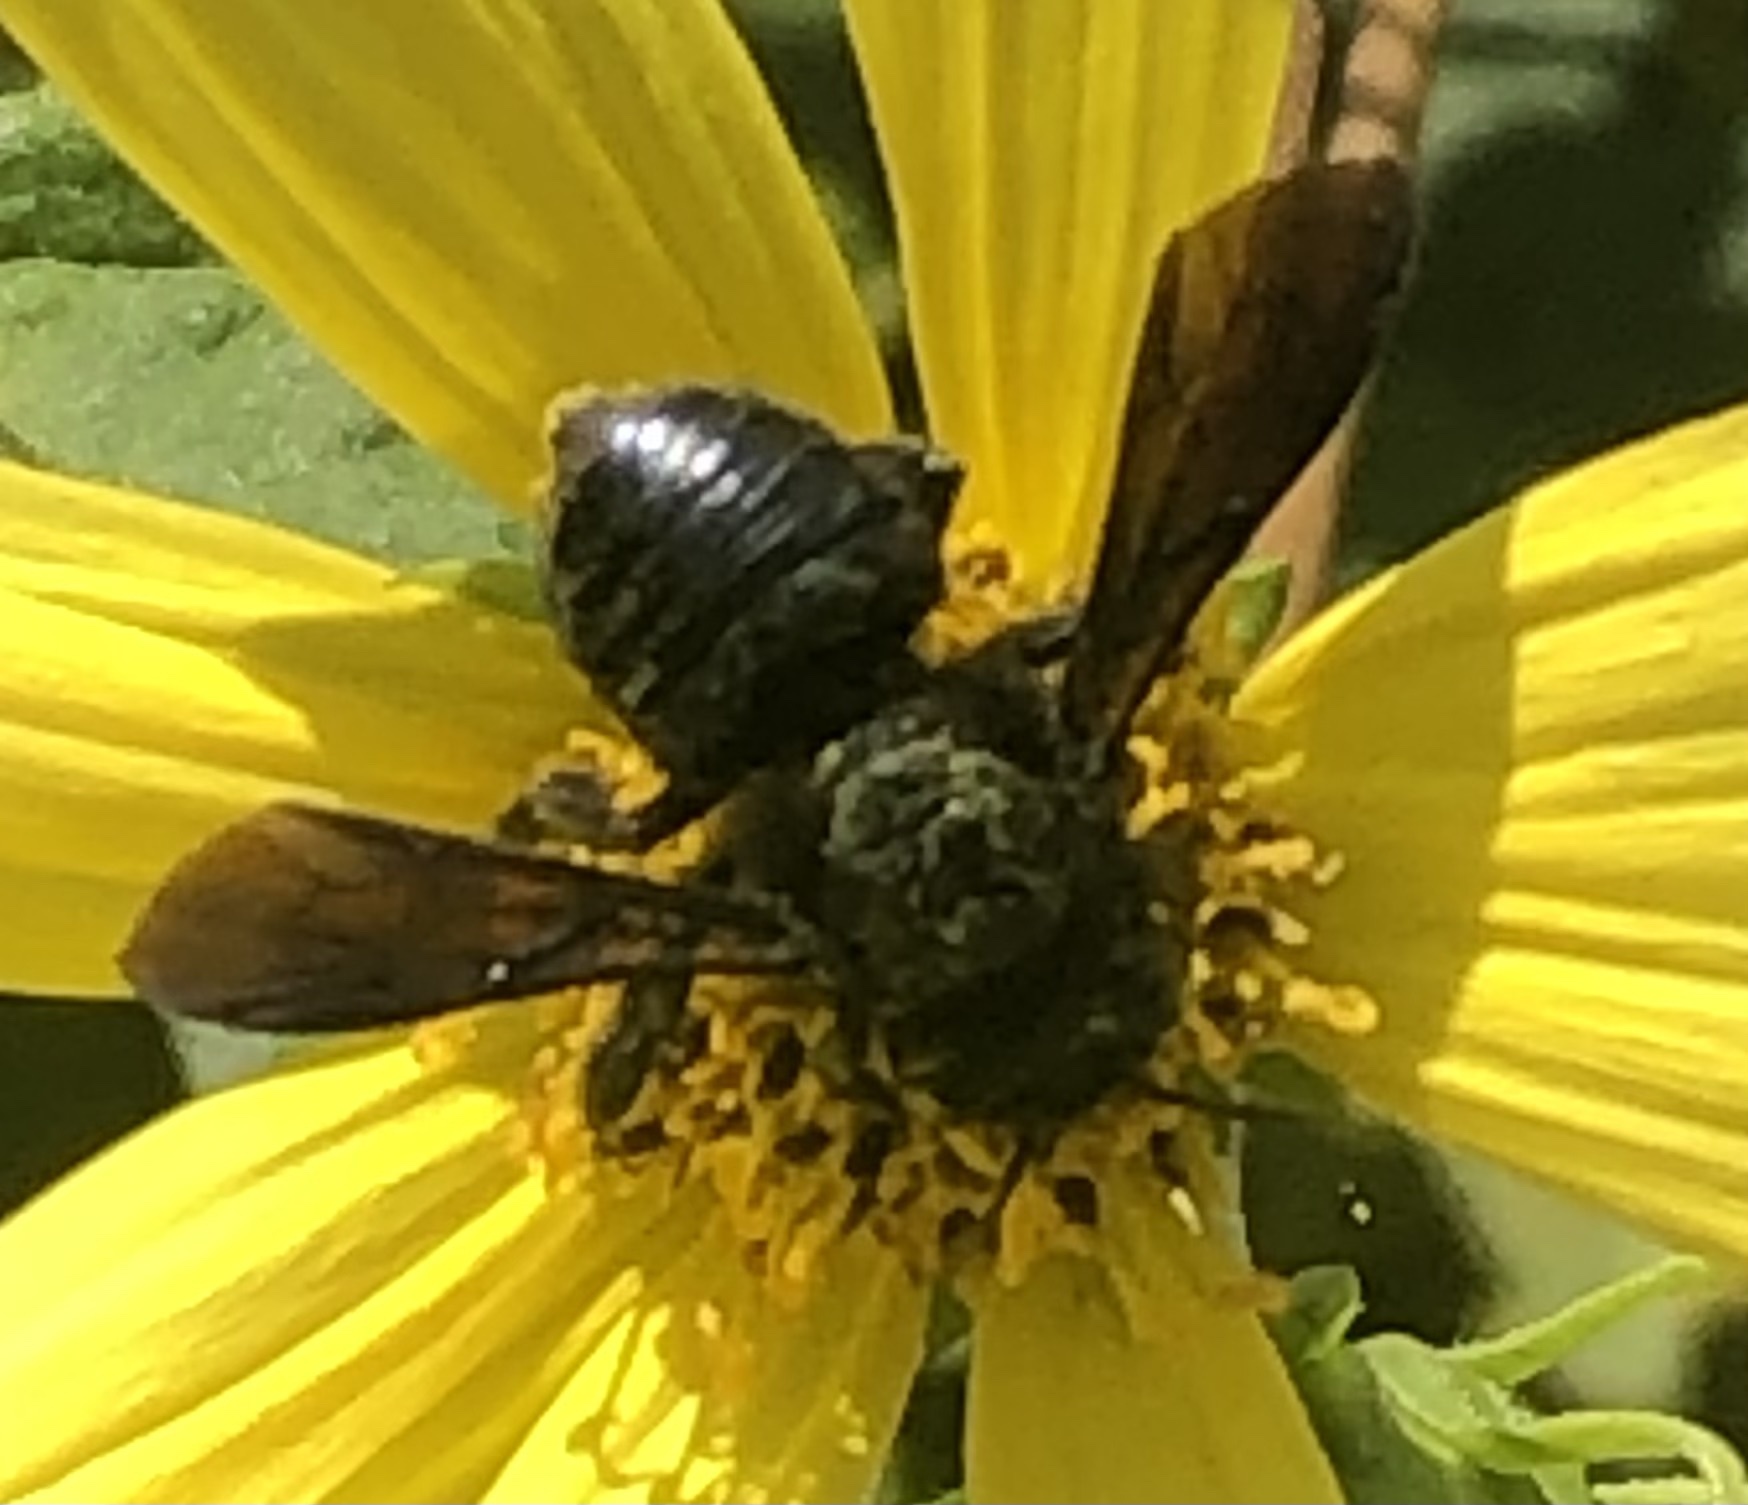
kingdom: Animalia
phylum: Arthropoda
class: Insecta
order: Hymenoptera
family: Megachilidae
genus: Megachile
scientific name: Megachile xylocopoides
